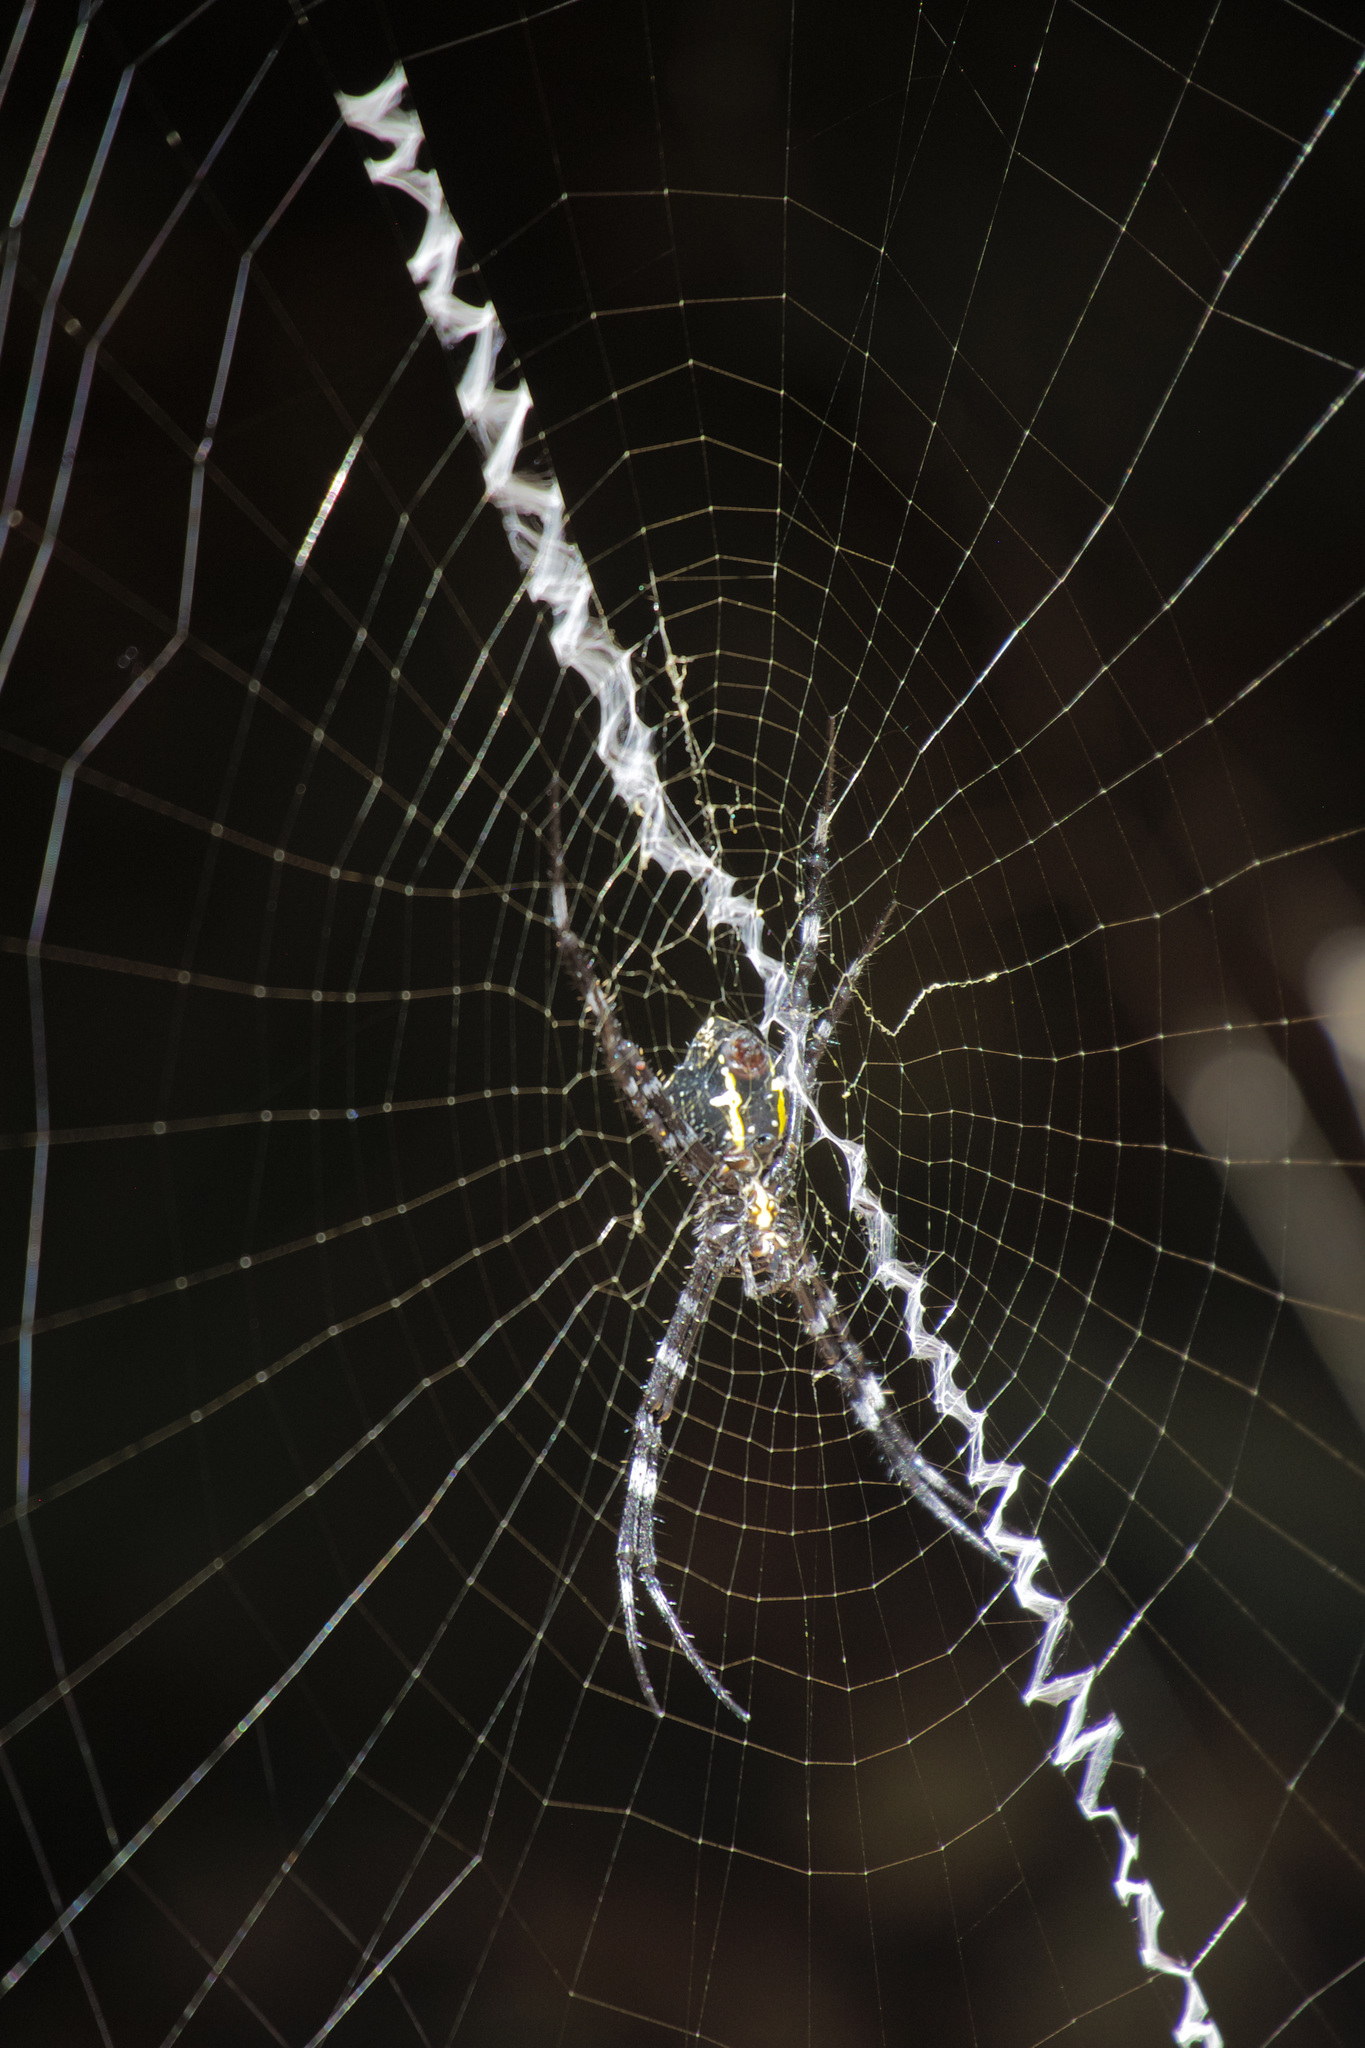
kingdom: Animalia
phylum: Arthropoda
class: Arachnida
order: Araneae
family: Araneidae
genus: Argiope
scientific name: Argiope appensa
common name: Garden spider
